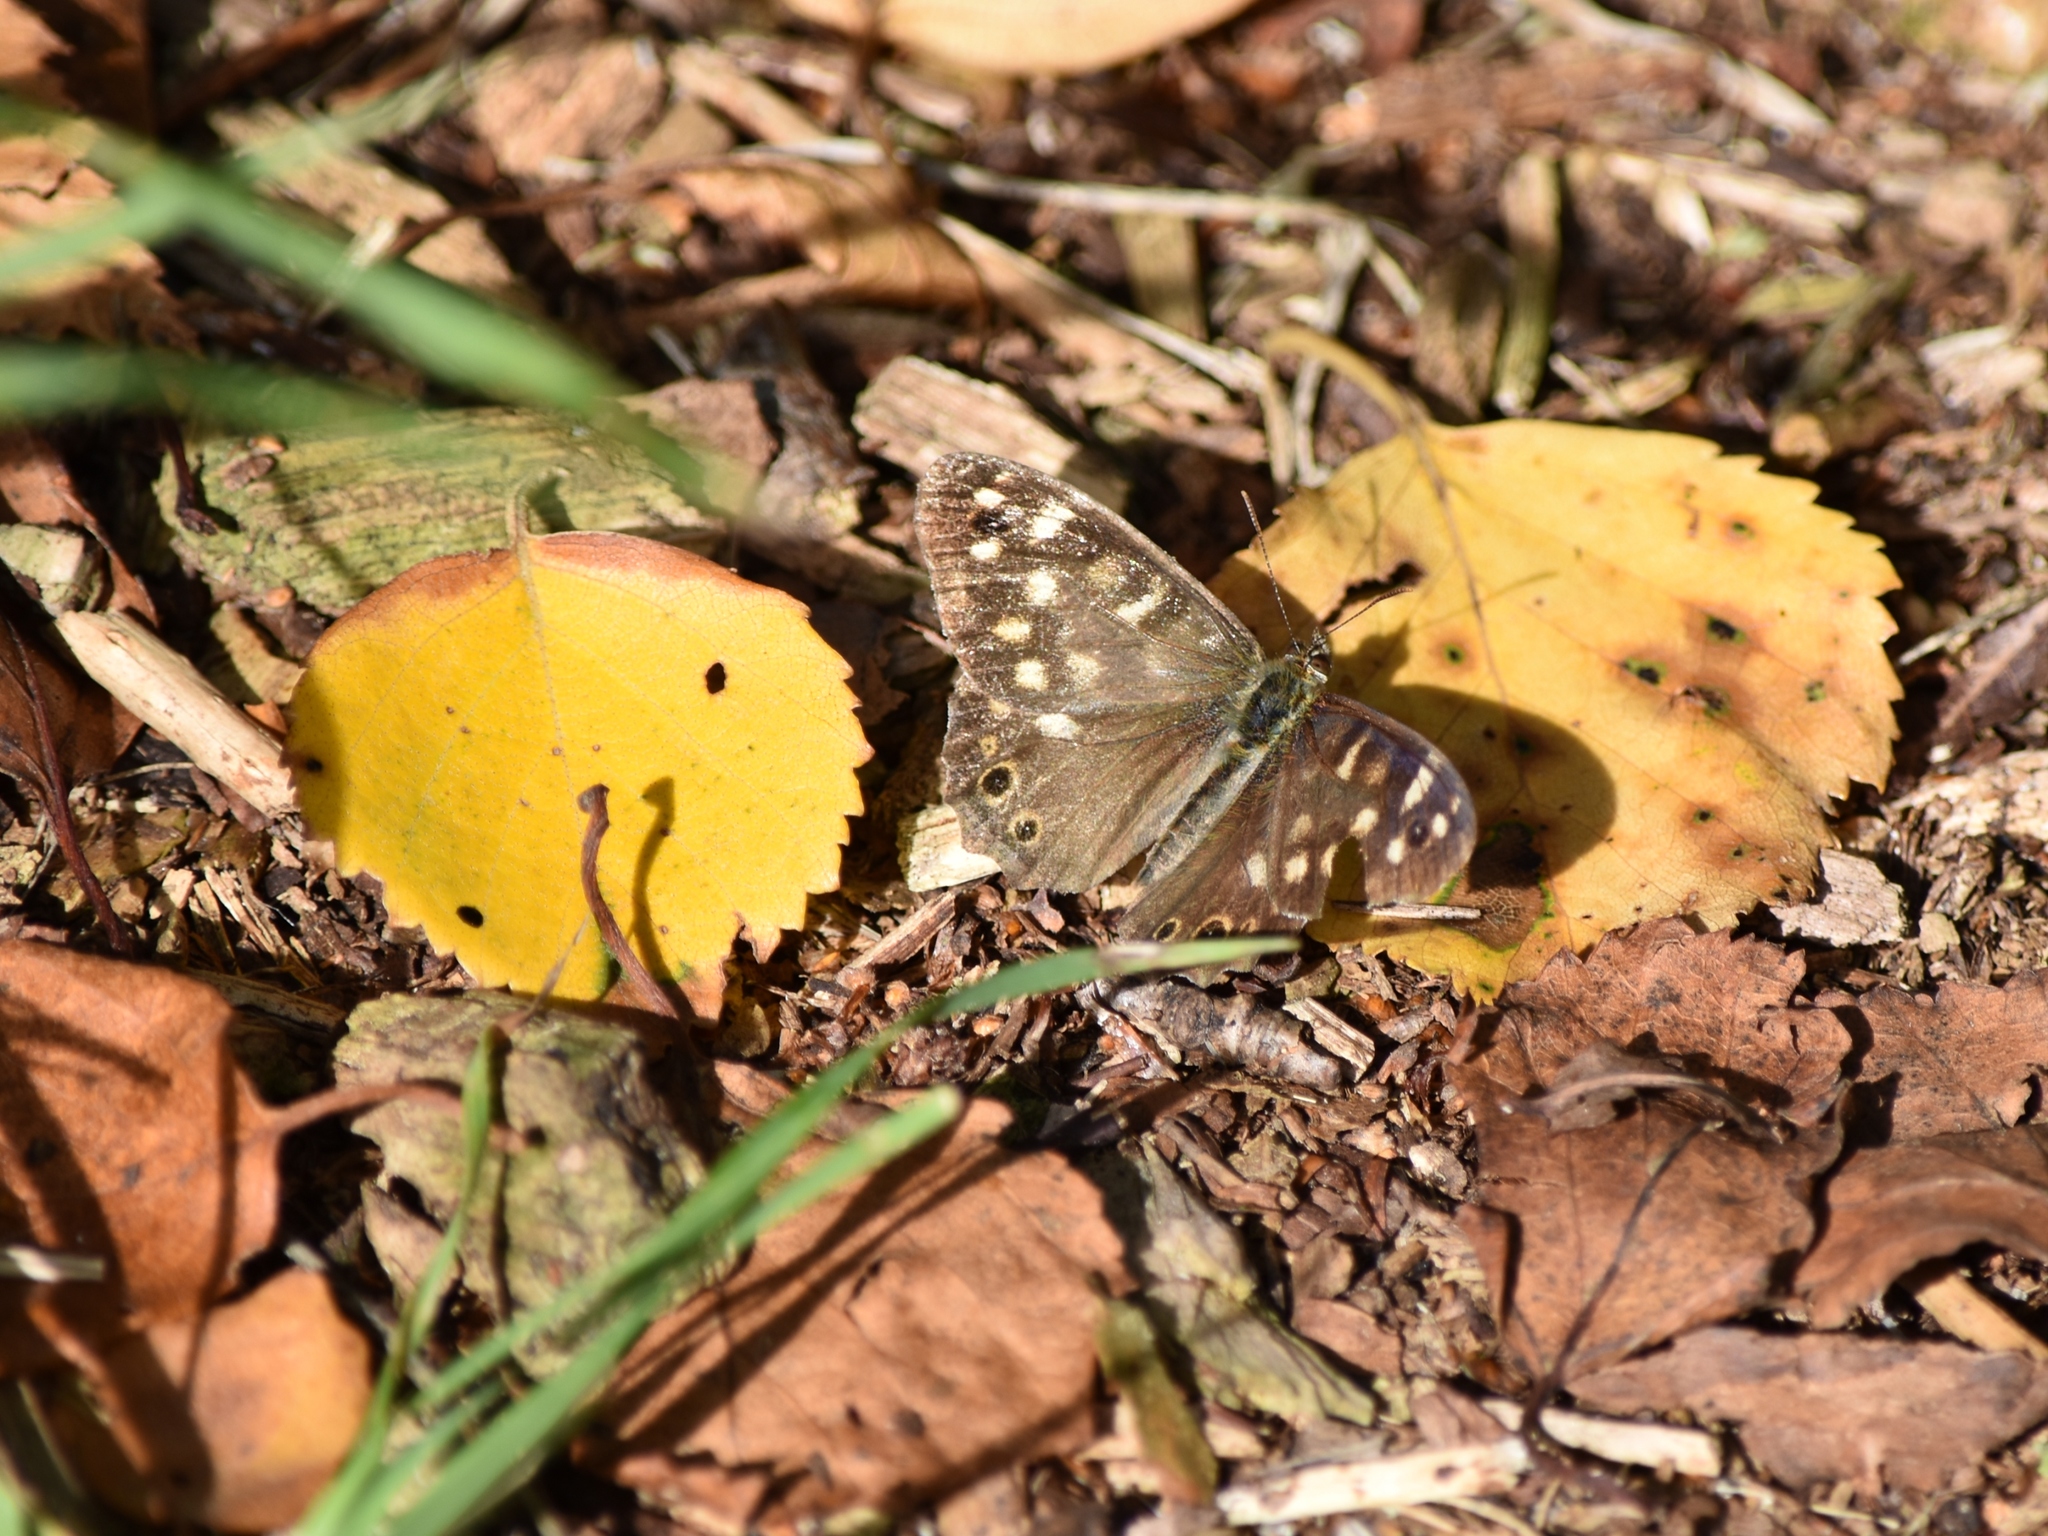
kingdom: Animalia
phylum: Arthropoda
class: Insecta
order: Lepidoptera
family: Nymphalidae
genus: Pararge
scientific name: Pararge aegeria
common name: Speckled wood
